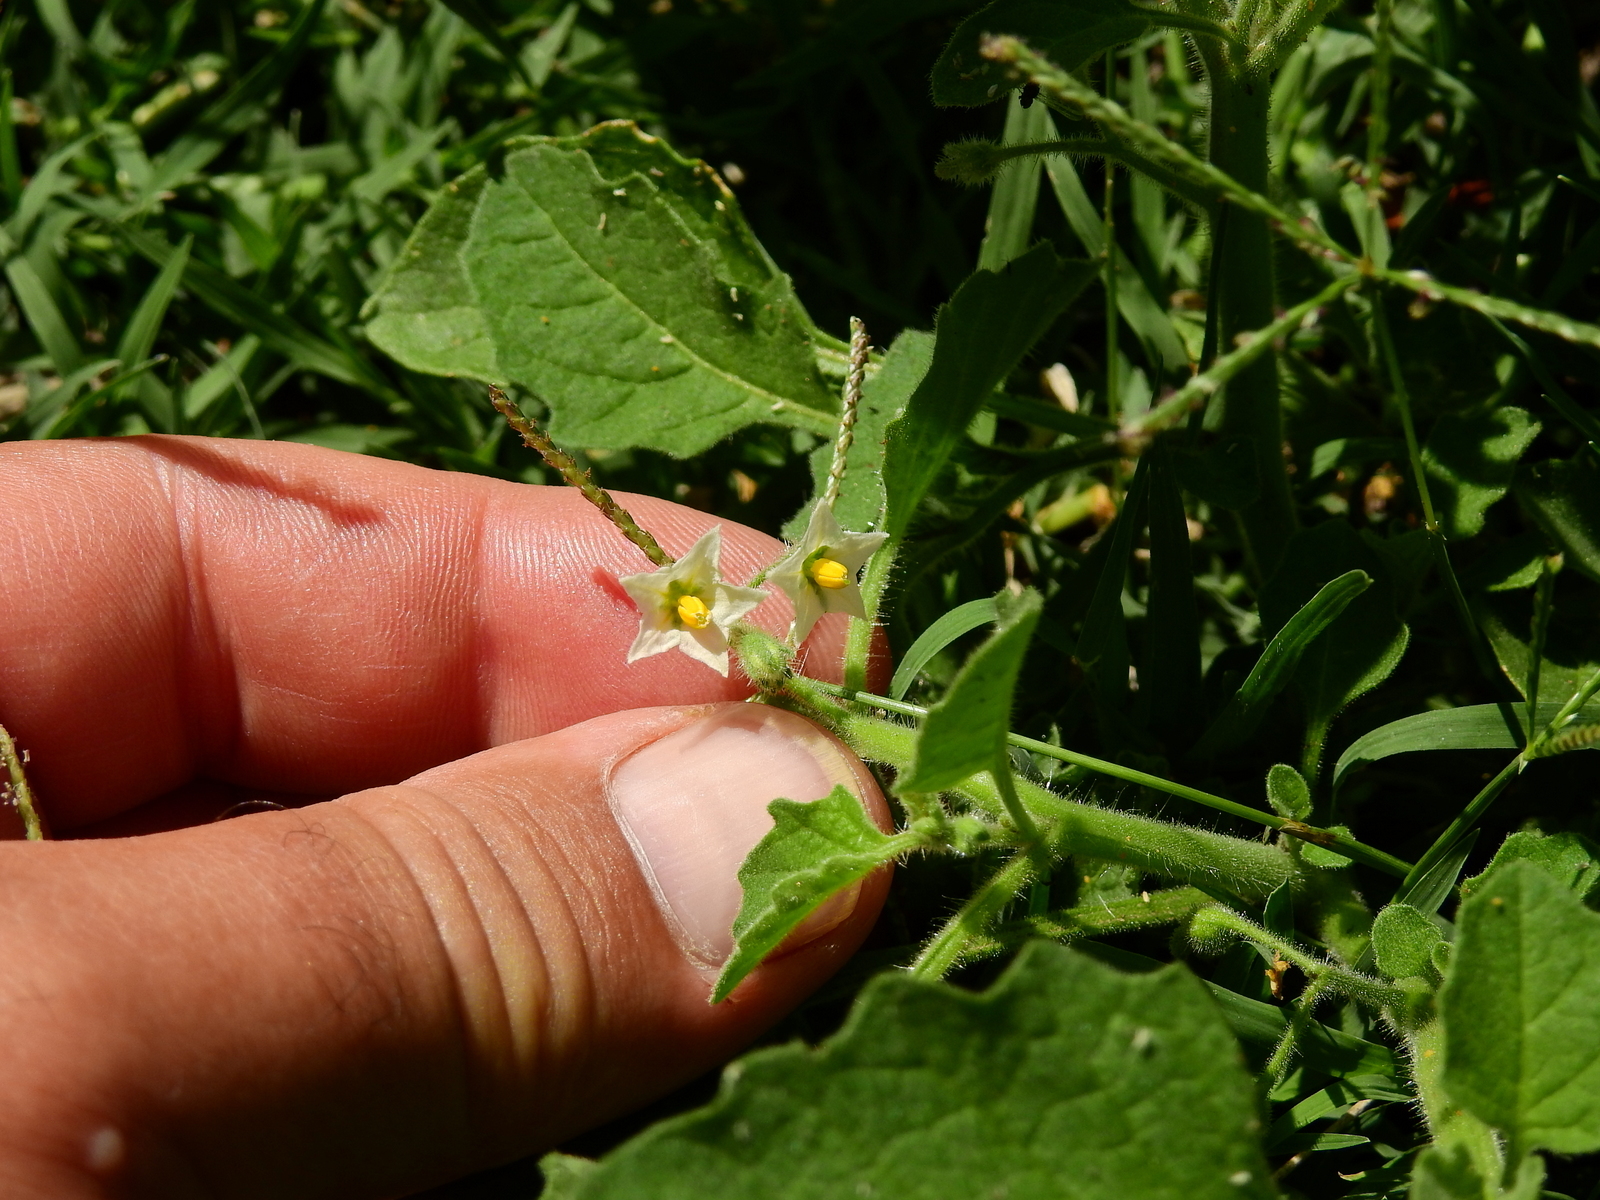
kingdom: Plantae
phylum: Tracheophyta
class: Magnoliopsida
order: Solanales
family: Solanaceae
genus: Solanum
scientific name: Solanum sarrachoides
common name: Leafy-fruited nightshade
